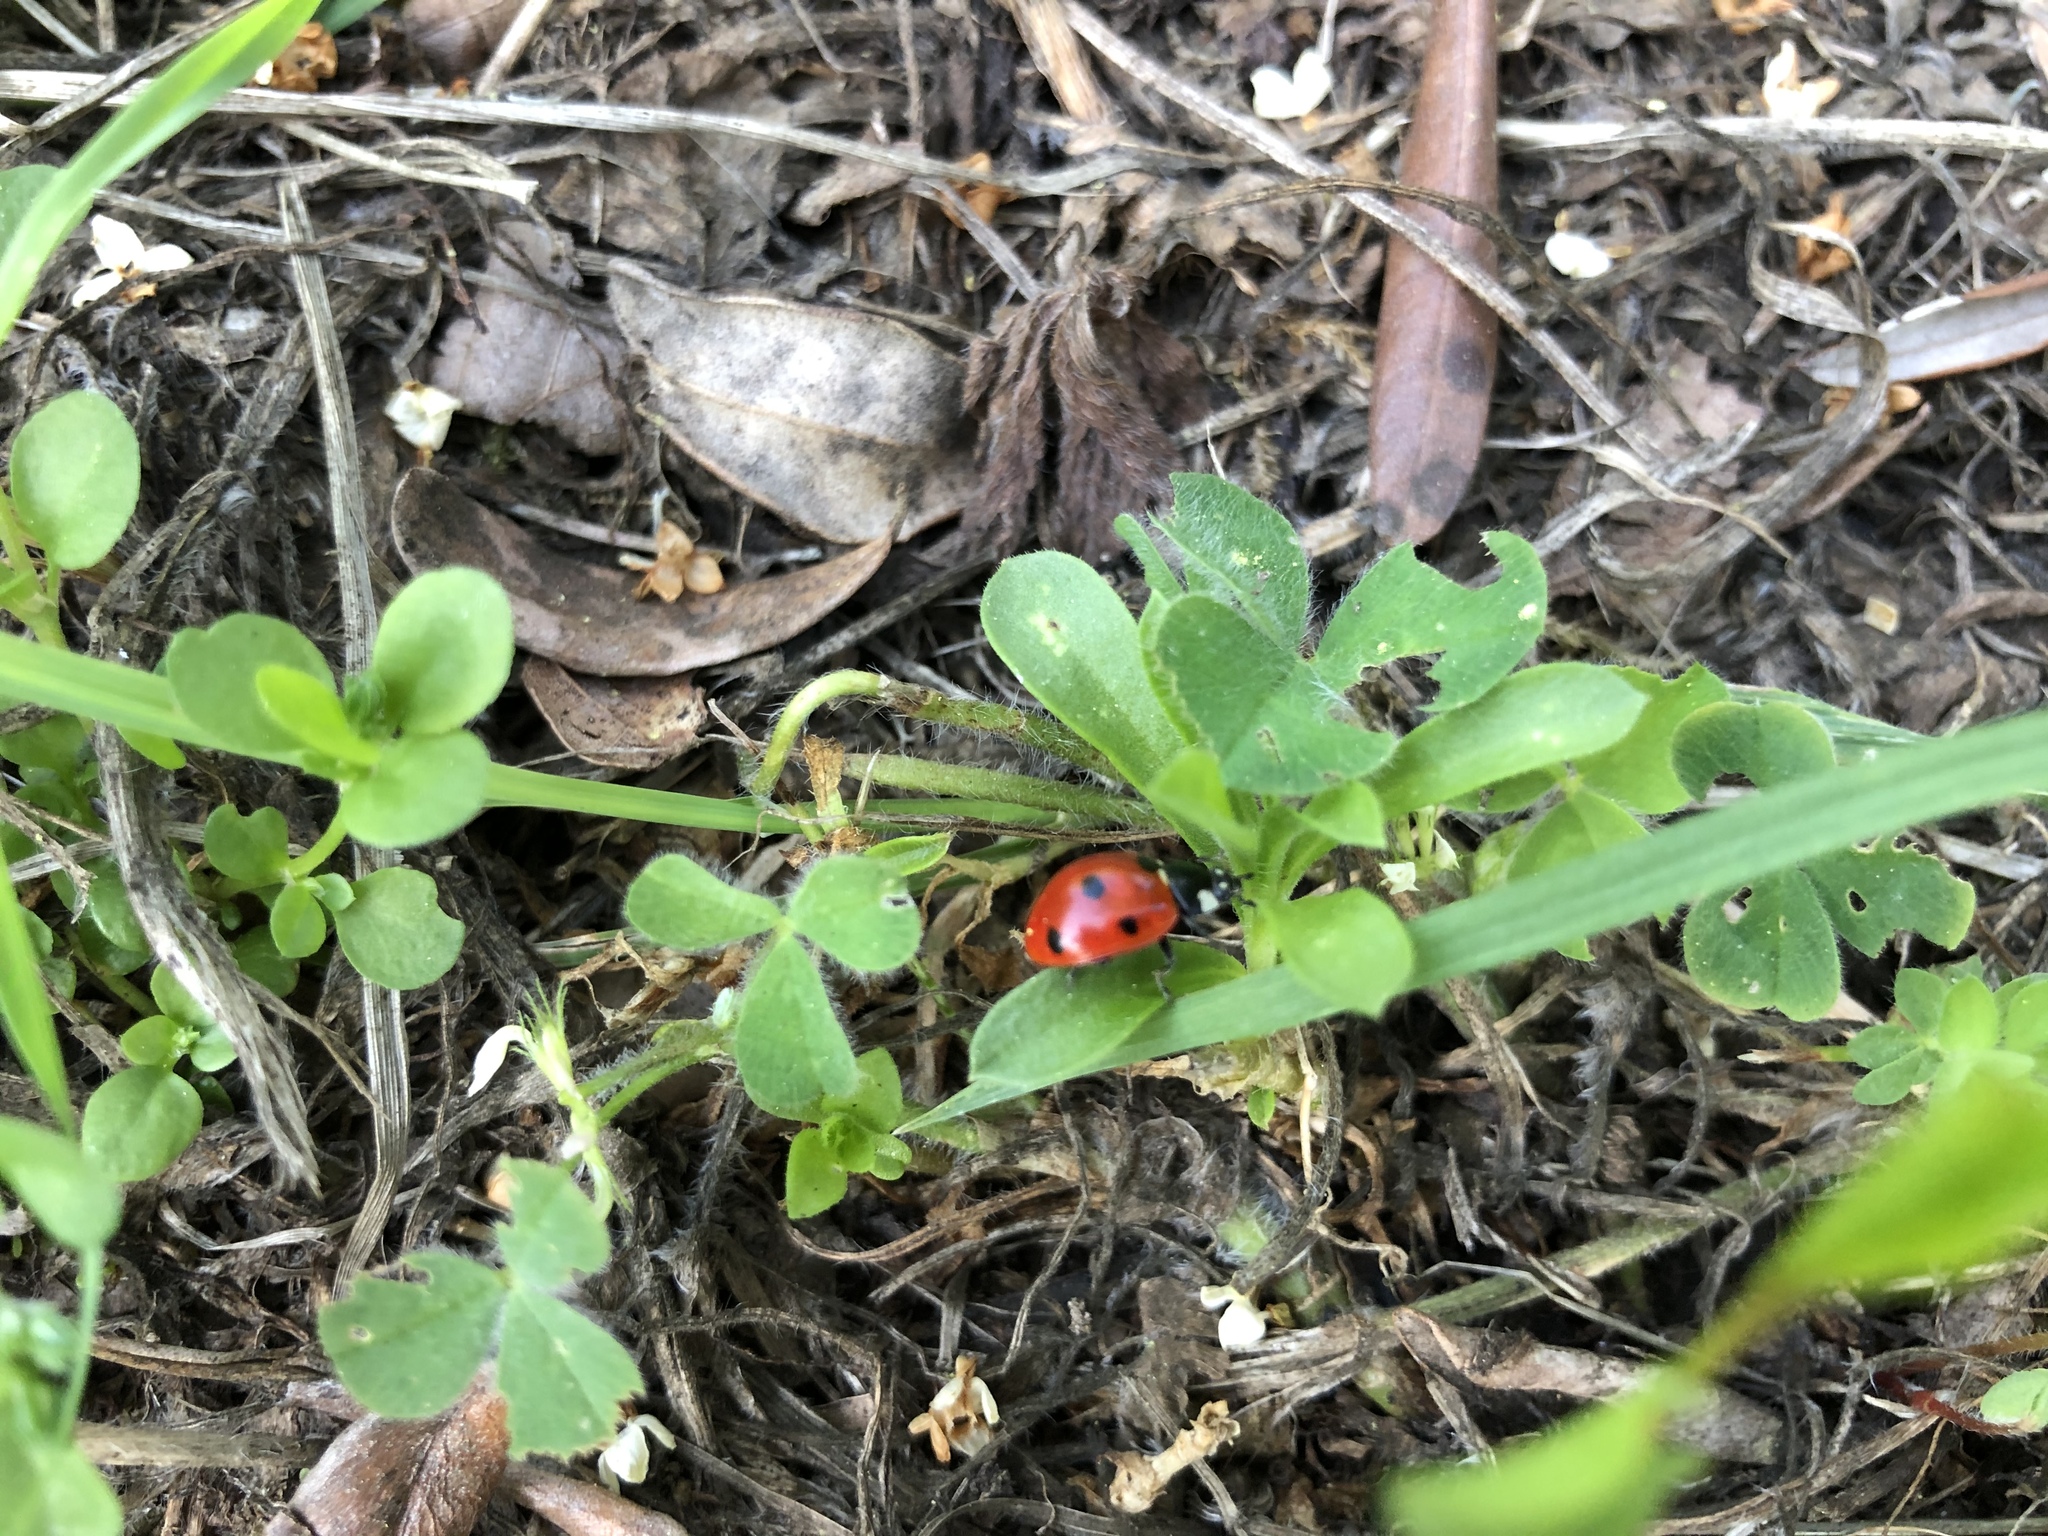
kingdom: Animalia
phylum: Arthropoda
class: Insecta
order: Coleoptera
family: Coccinellidae
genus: Coccinella
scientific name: Coccinella septempunctata
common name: Sevenspotted lady beetle
